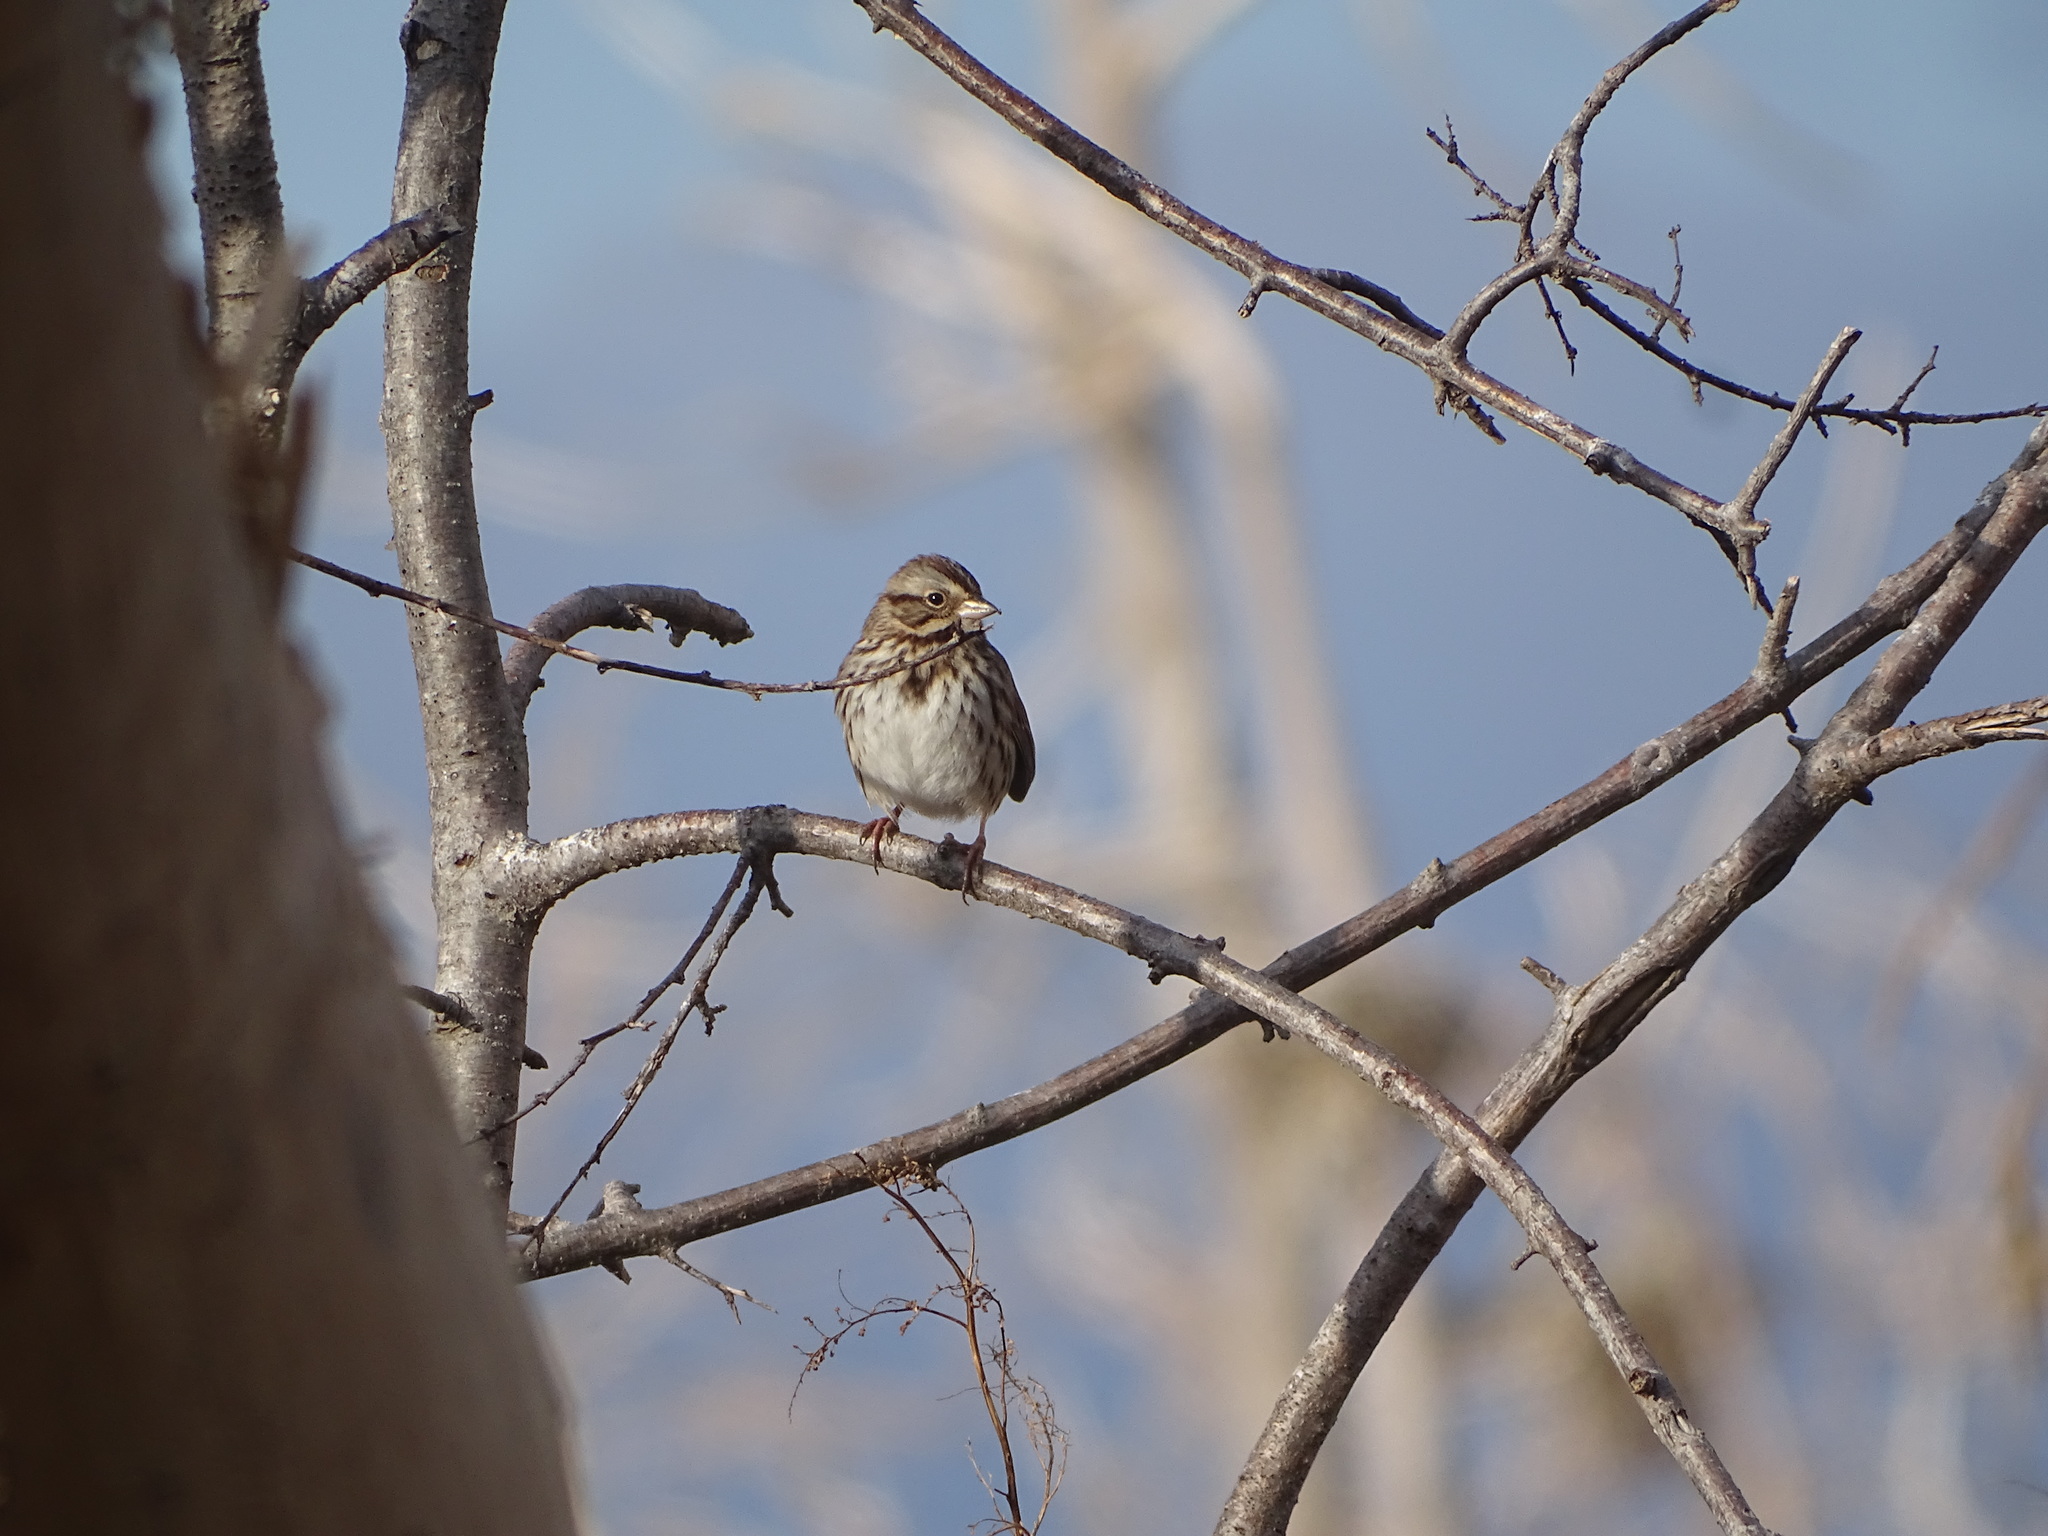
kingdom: Animalia
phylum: Chordata
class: Aves
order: Passeriformes
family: Passerellidae
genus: Melospiza
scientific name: Melospiza melodia
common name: Song sparrow
